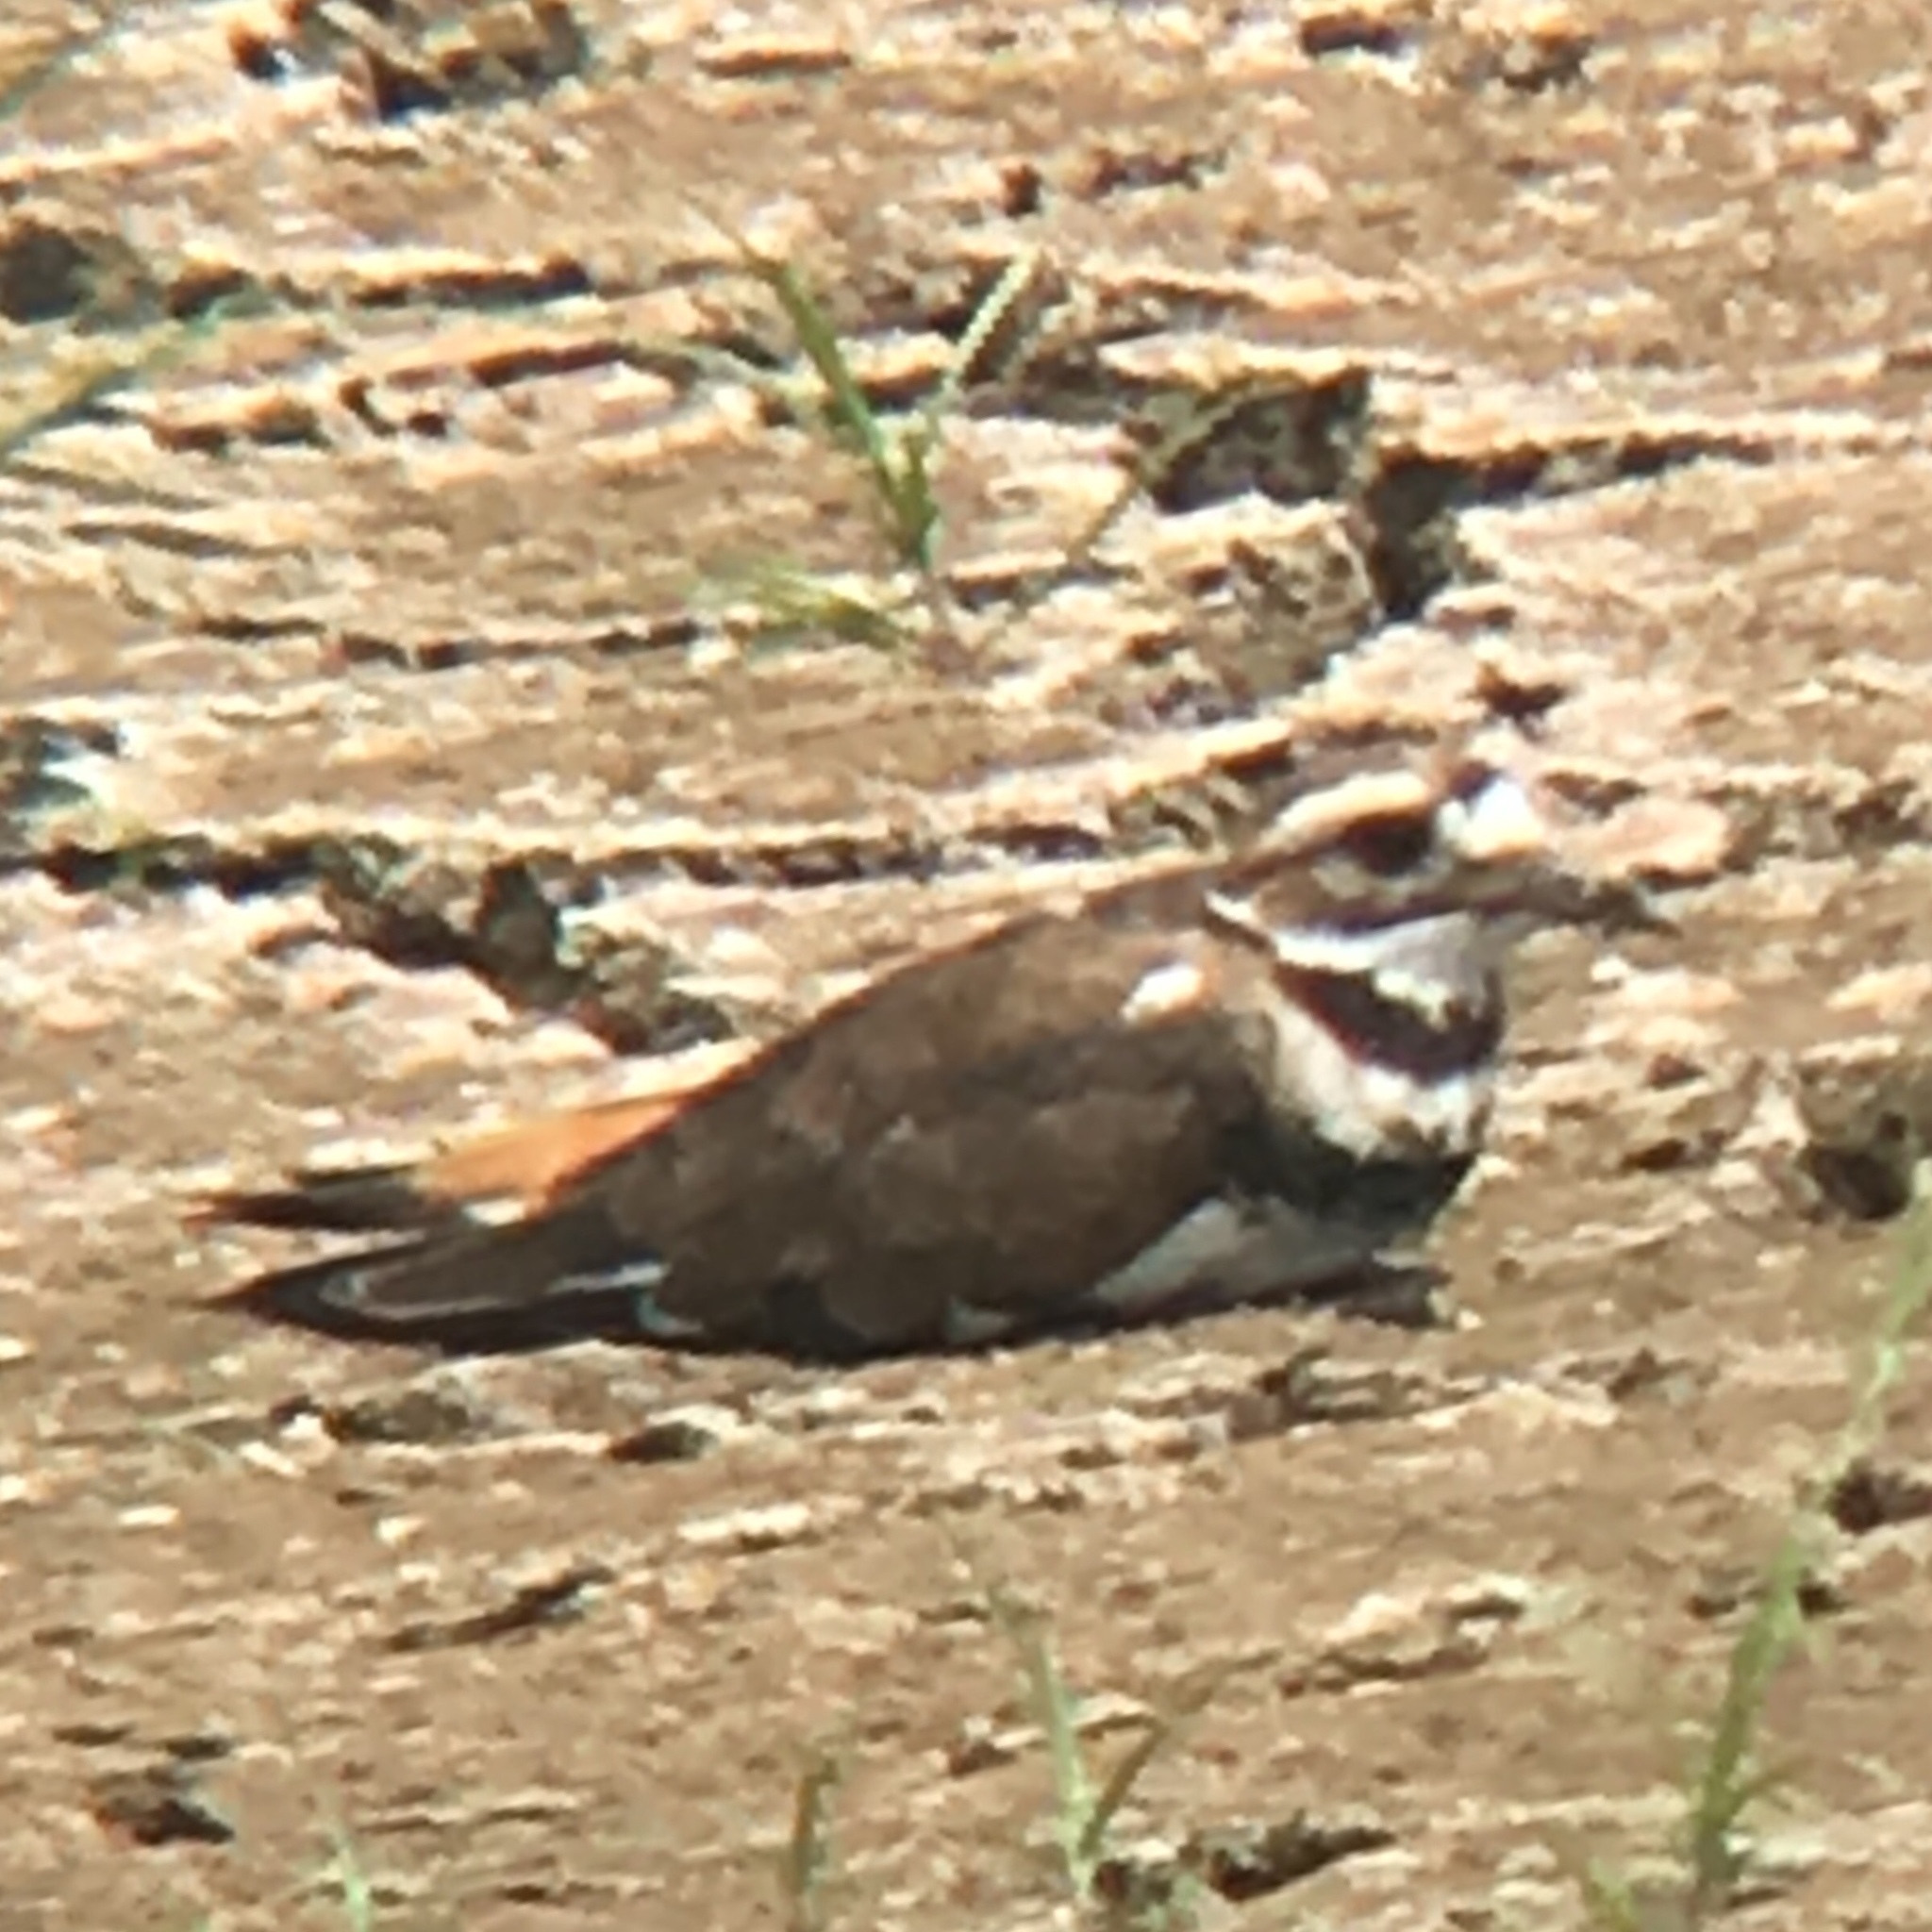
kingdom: Animalia
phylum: Chordata
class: Aves
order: Charadriiformes
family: Charadriidae
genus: Charadrius
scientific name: Charadrius vociferus
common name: Killdeer
